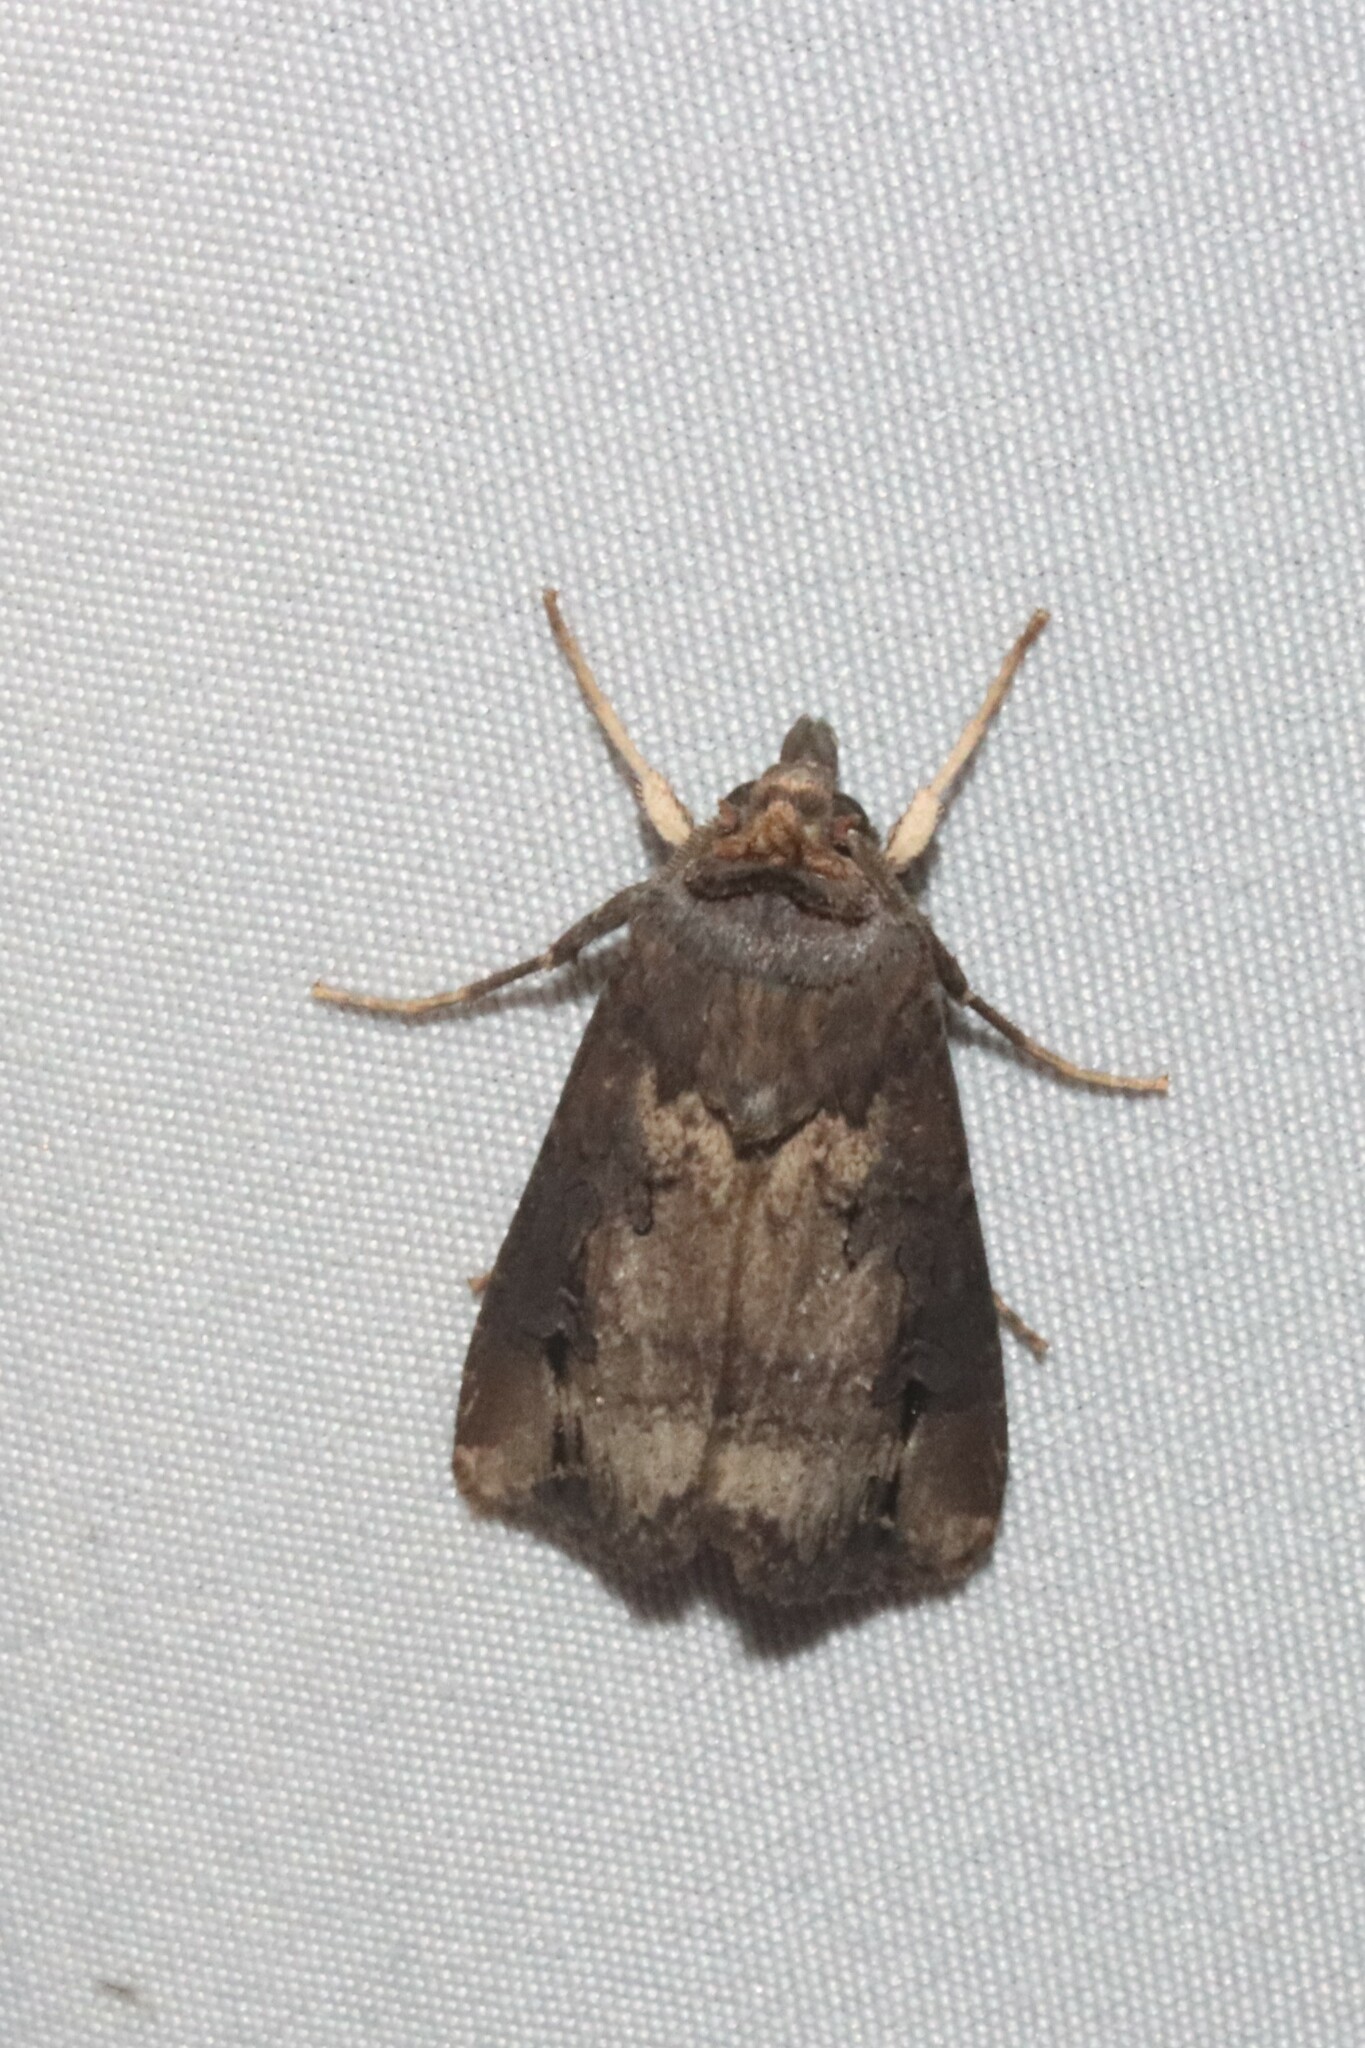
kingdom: Animalia
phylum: Arthropoda
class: Insecta
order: Lepidoptera
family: Noctuidae
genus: Agrotis
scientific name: Agrotis ipsilon
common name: Dark sword-grass
